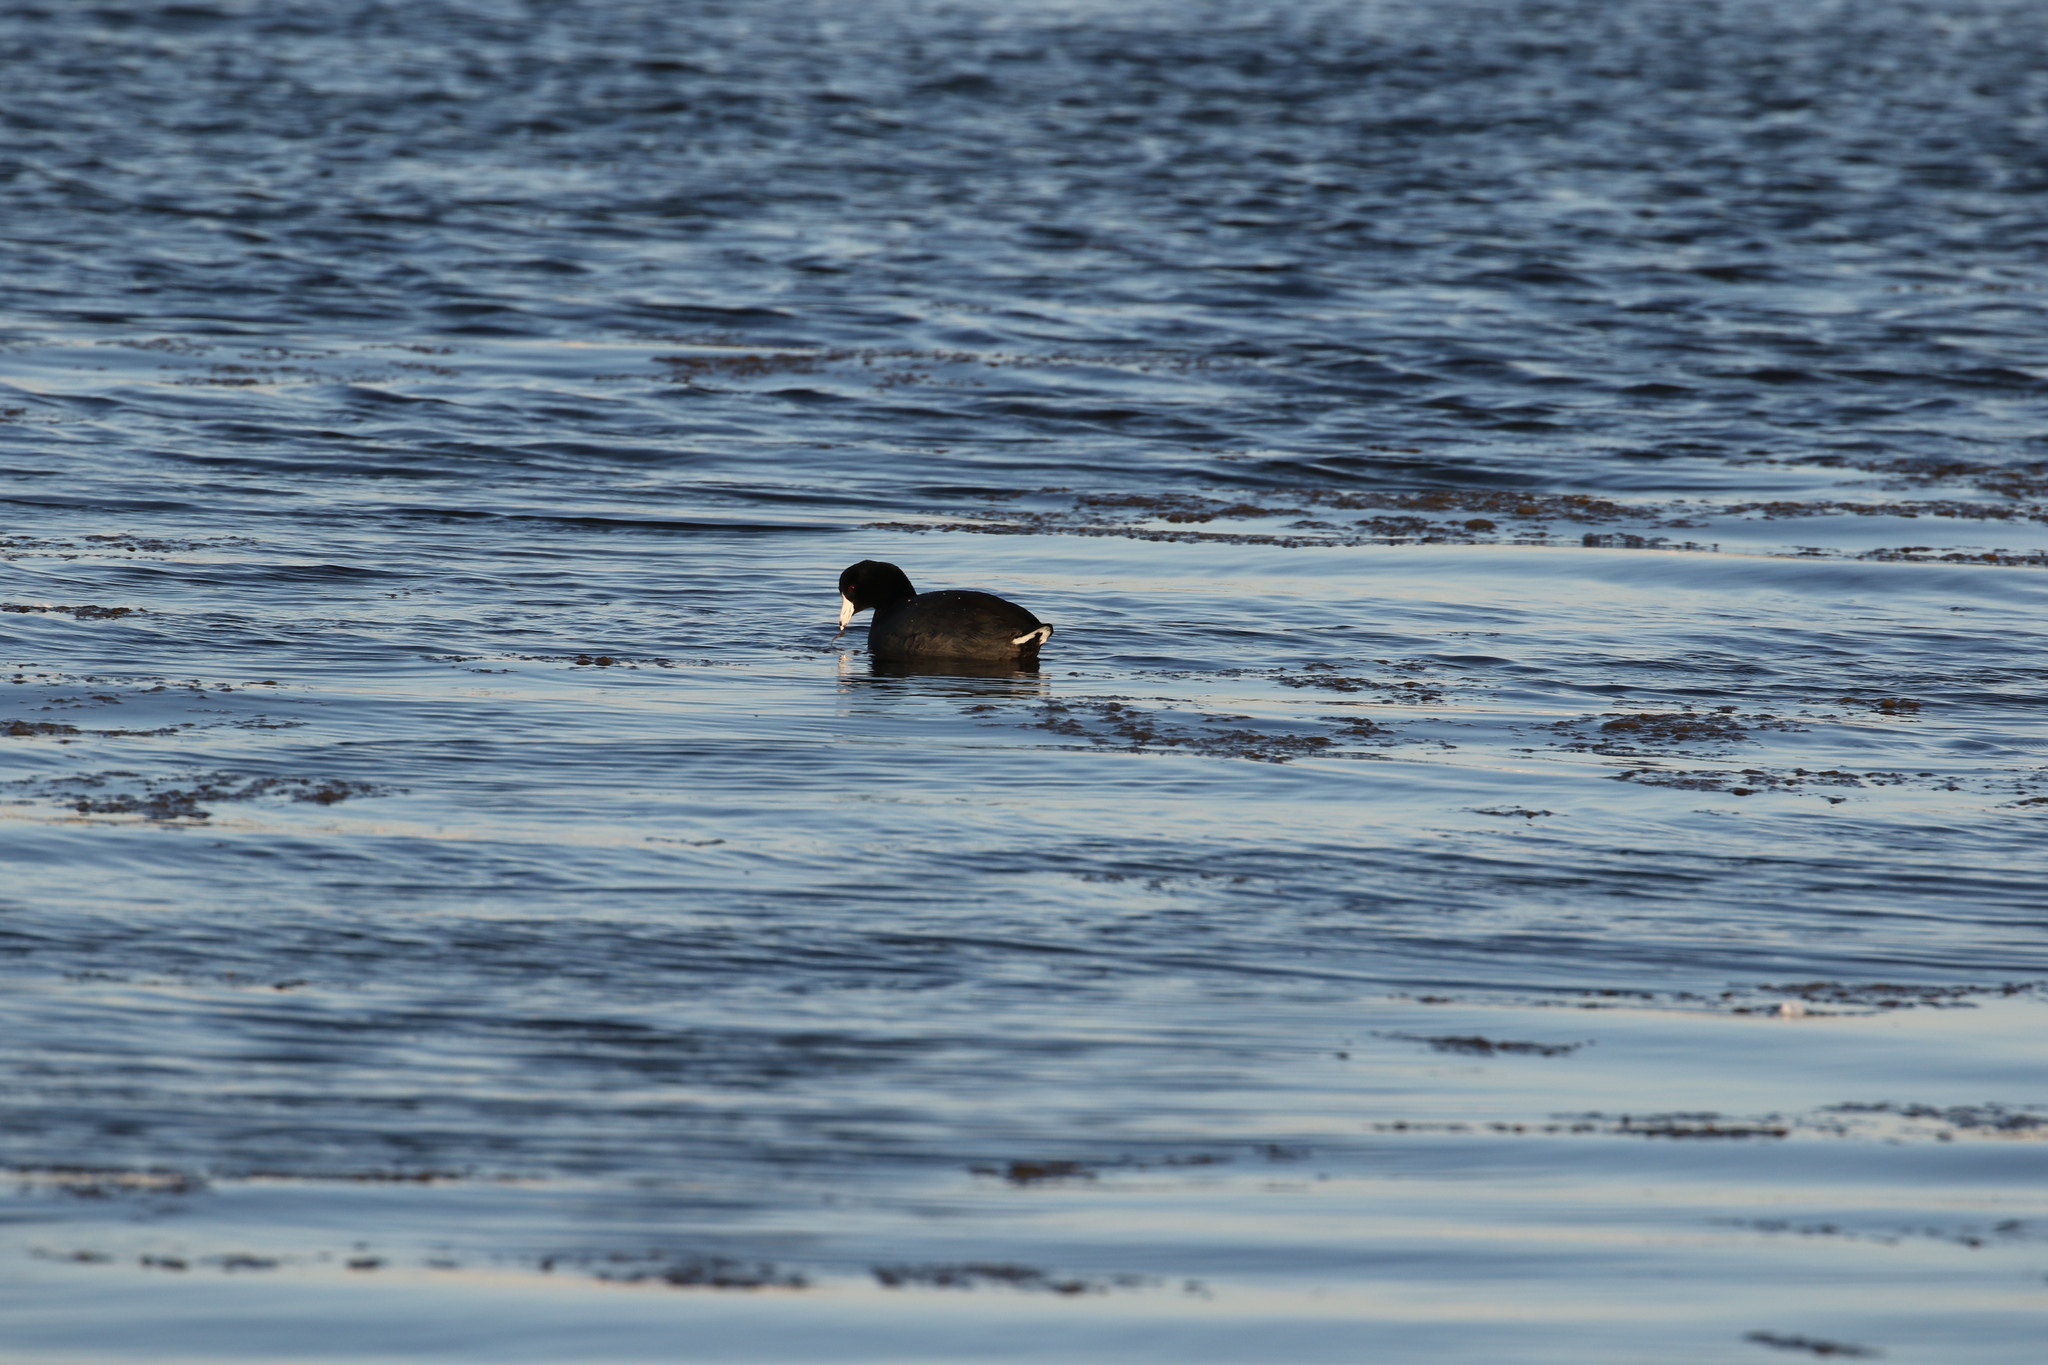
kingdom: Animalia
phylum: Chordata
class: Aves
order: Gruiformes
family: Rallidae
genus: Fulica
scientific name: Fulica americana
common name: American coot
